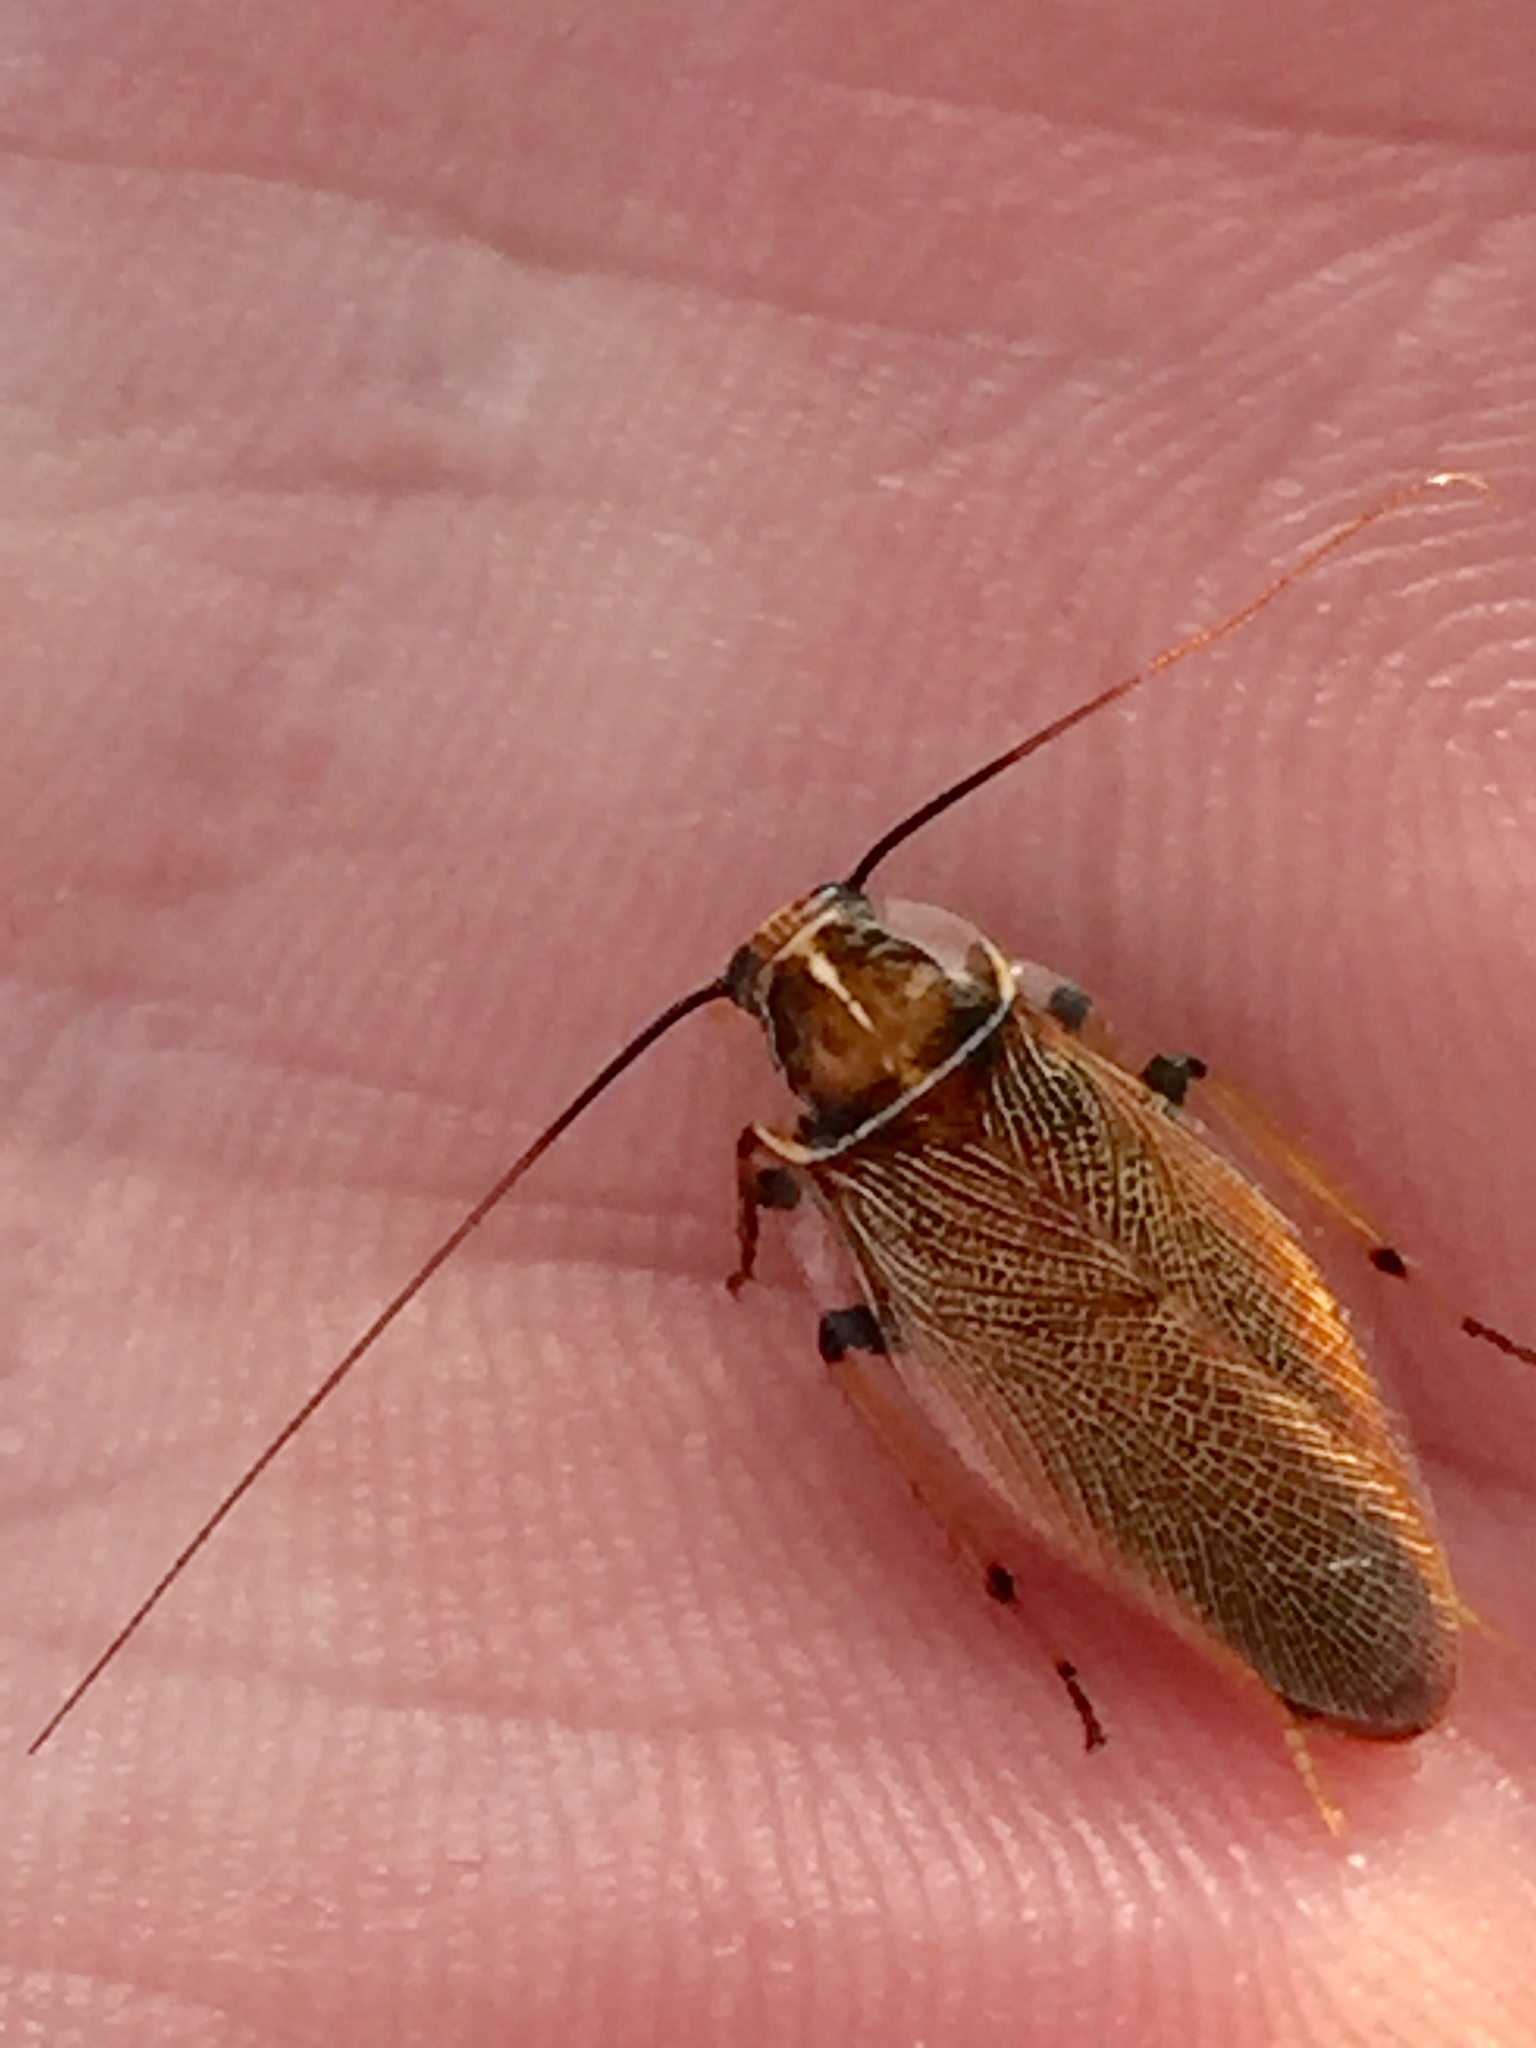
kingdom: Animalia
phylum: Arthropoda
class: Insecta
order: Blattodea
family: Ectobiidae
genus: Balta
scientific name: Balta bicolor
